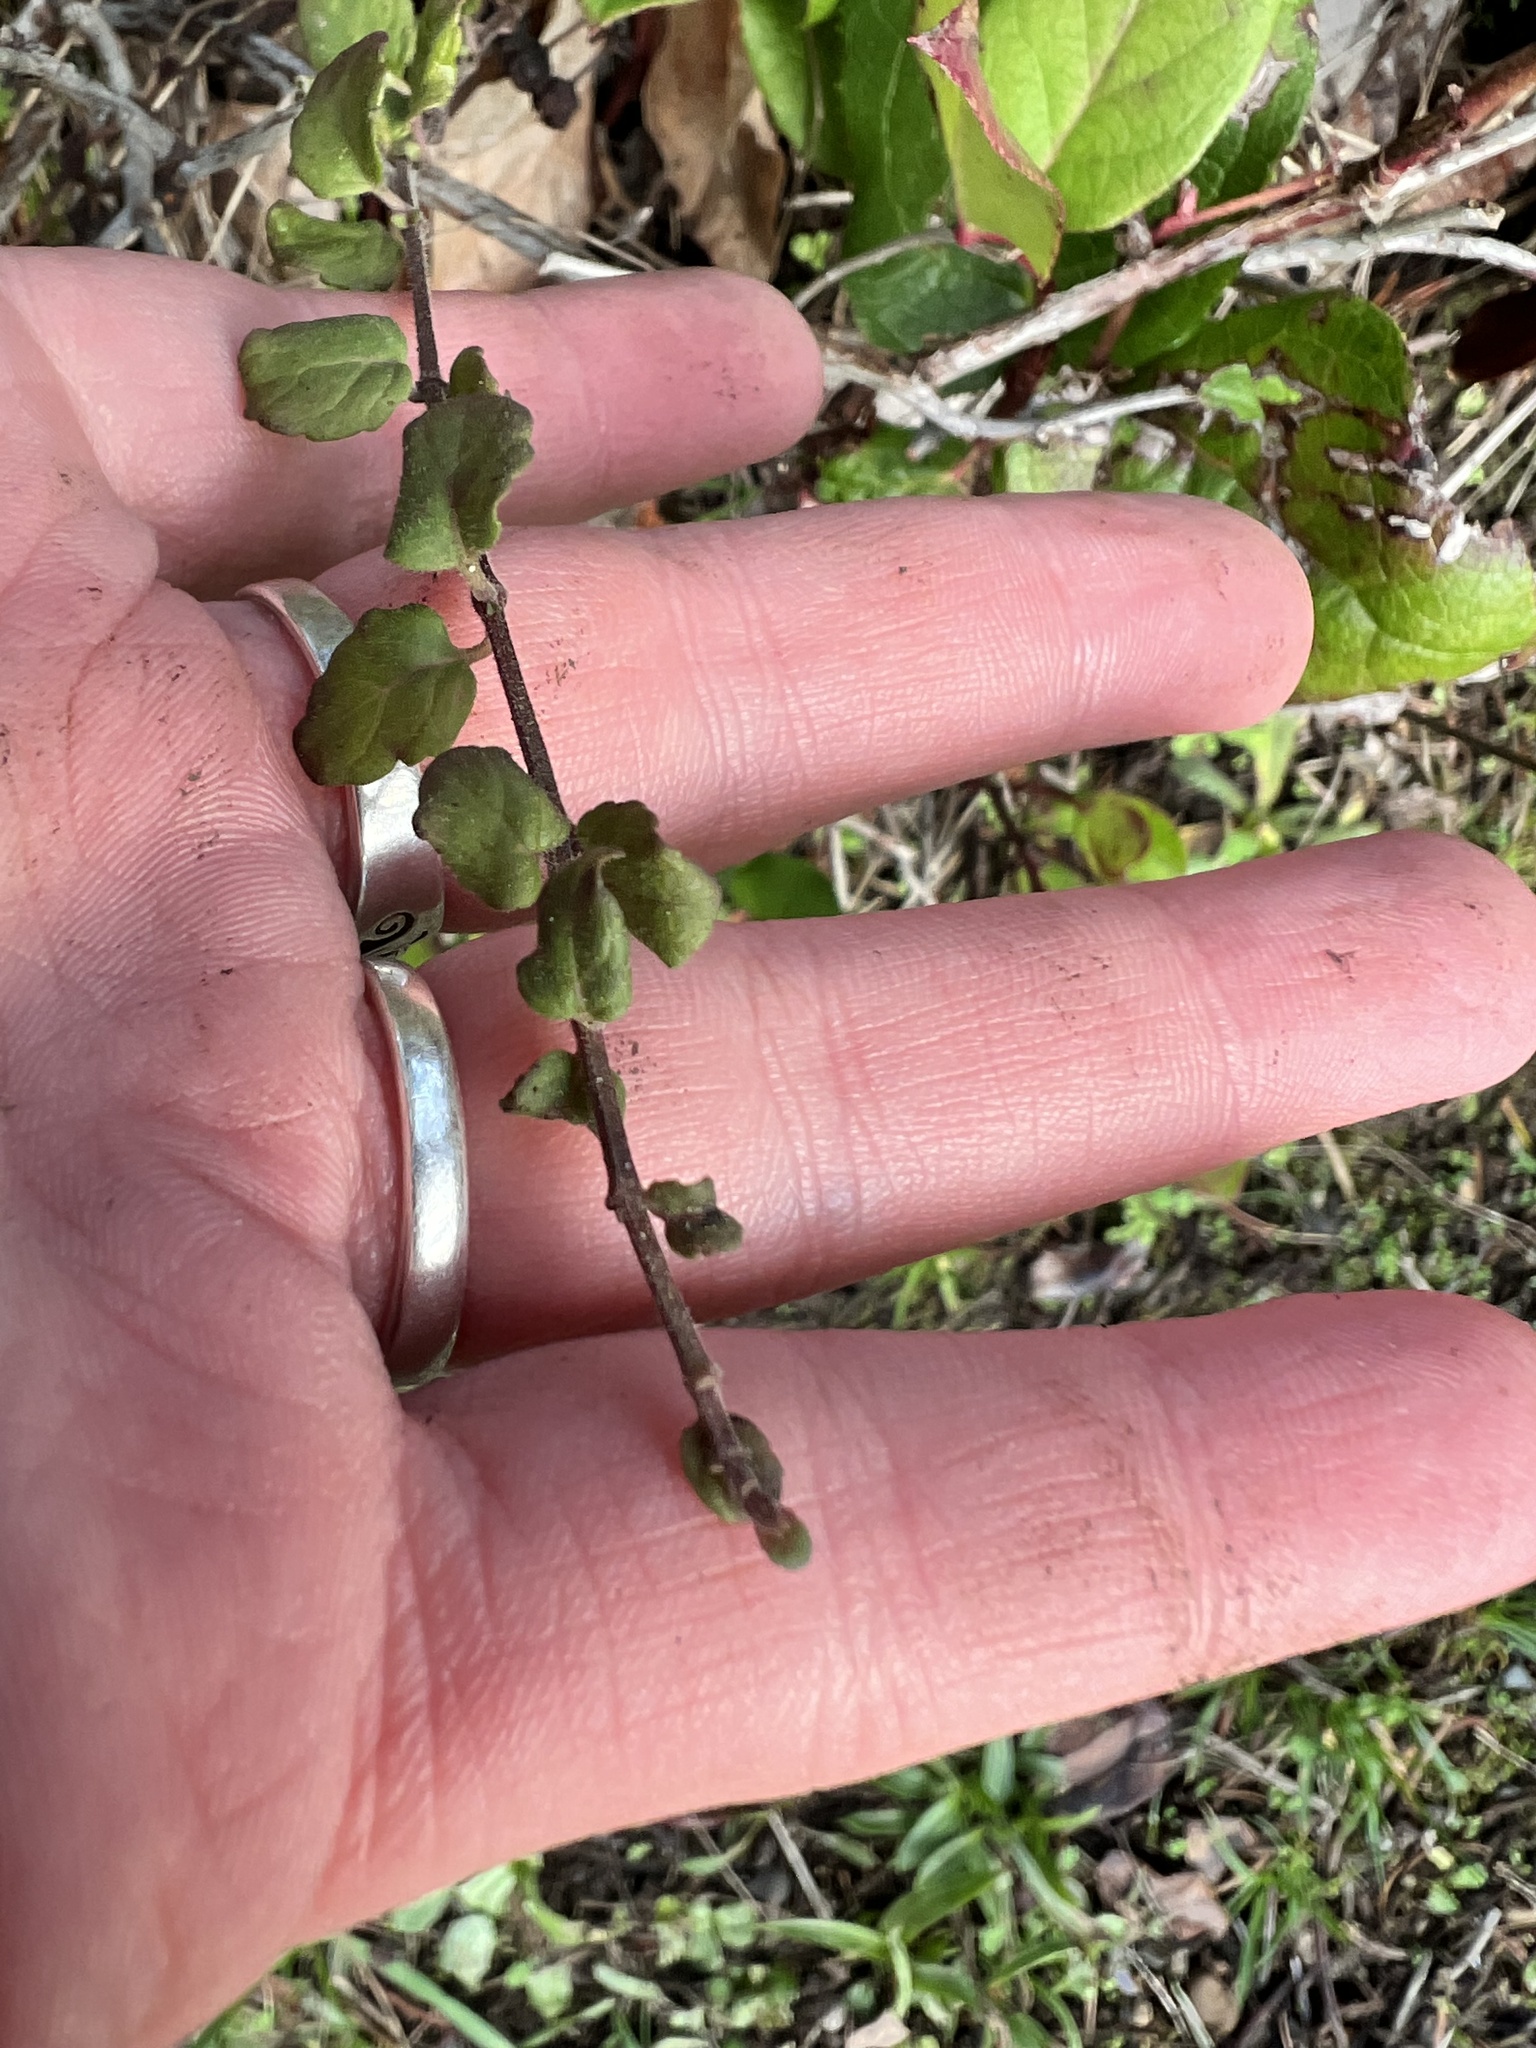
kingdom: Plantae
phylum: Tracheophyta
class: Magnoliopsida
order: Lamiales
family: Lamiaceae
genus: Micromeria
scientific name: Micromeria douglasii
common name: Yerba buena
